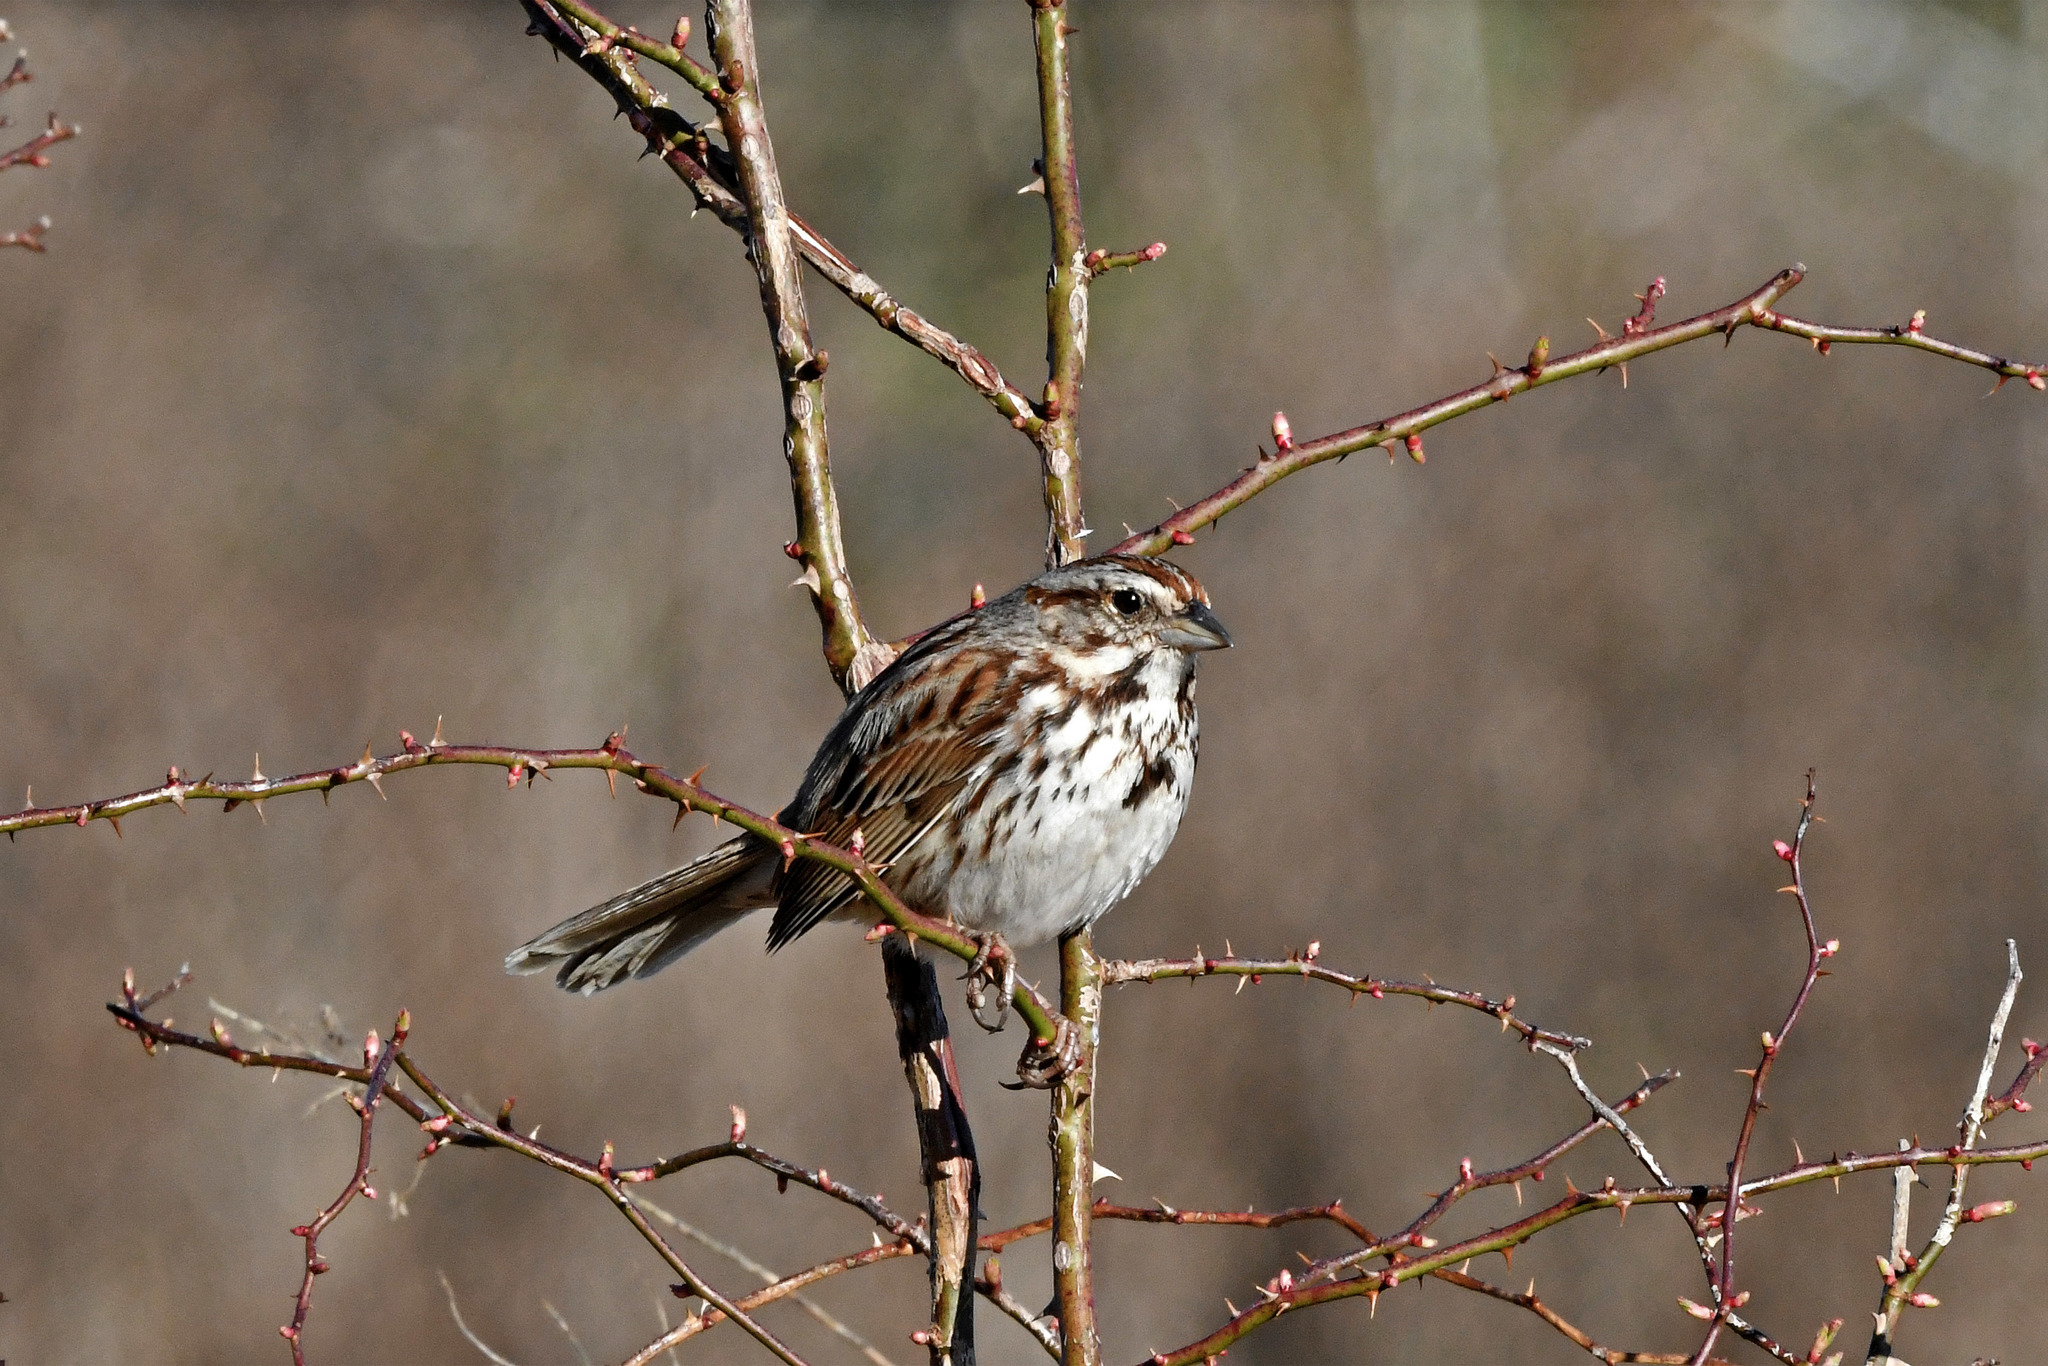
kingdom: Animalia
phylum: Chordata
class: Aves
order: Passeriformes
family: Passerellidae
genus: Melospiza
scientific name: Melospiza melodia
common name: Song sparrow
